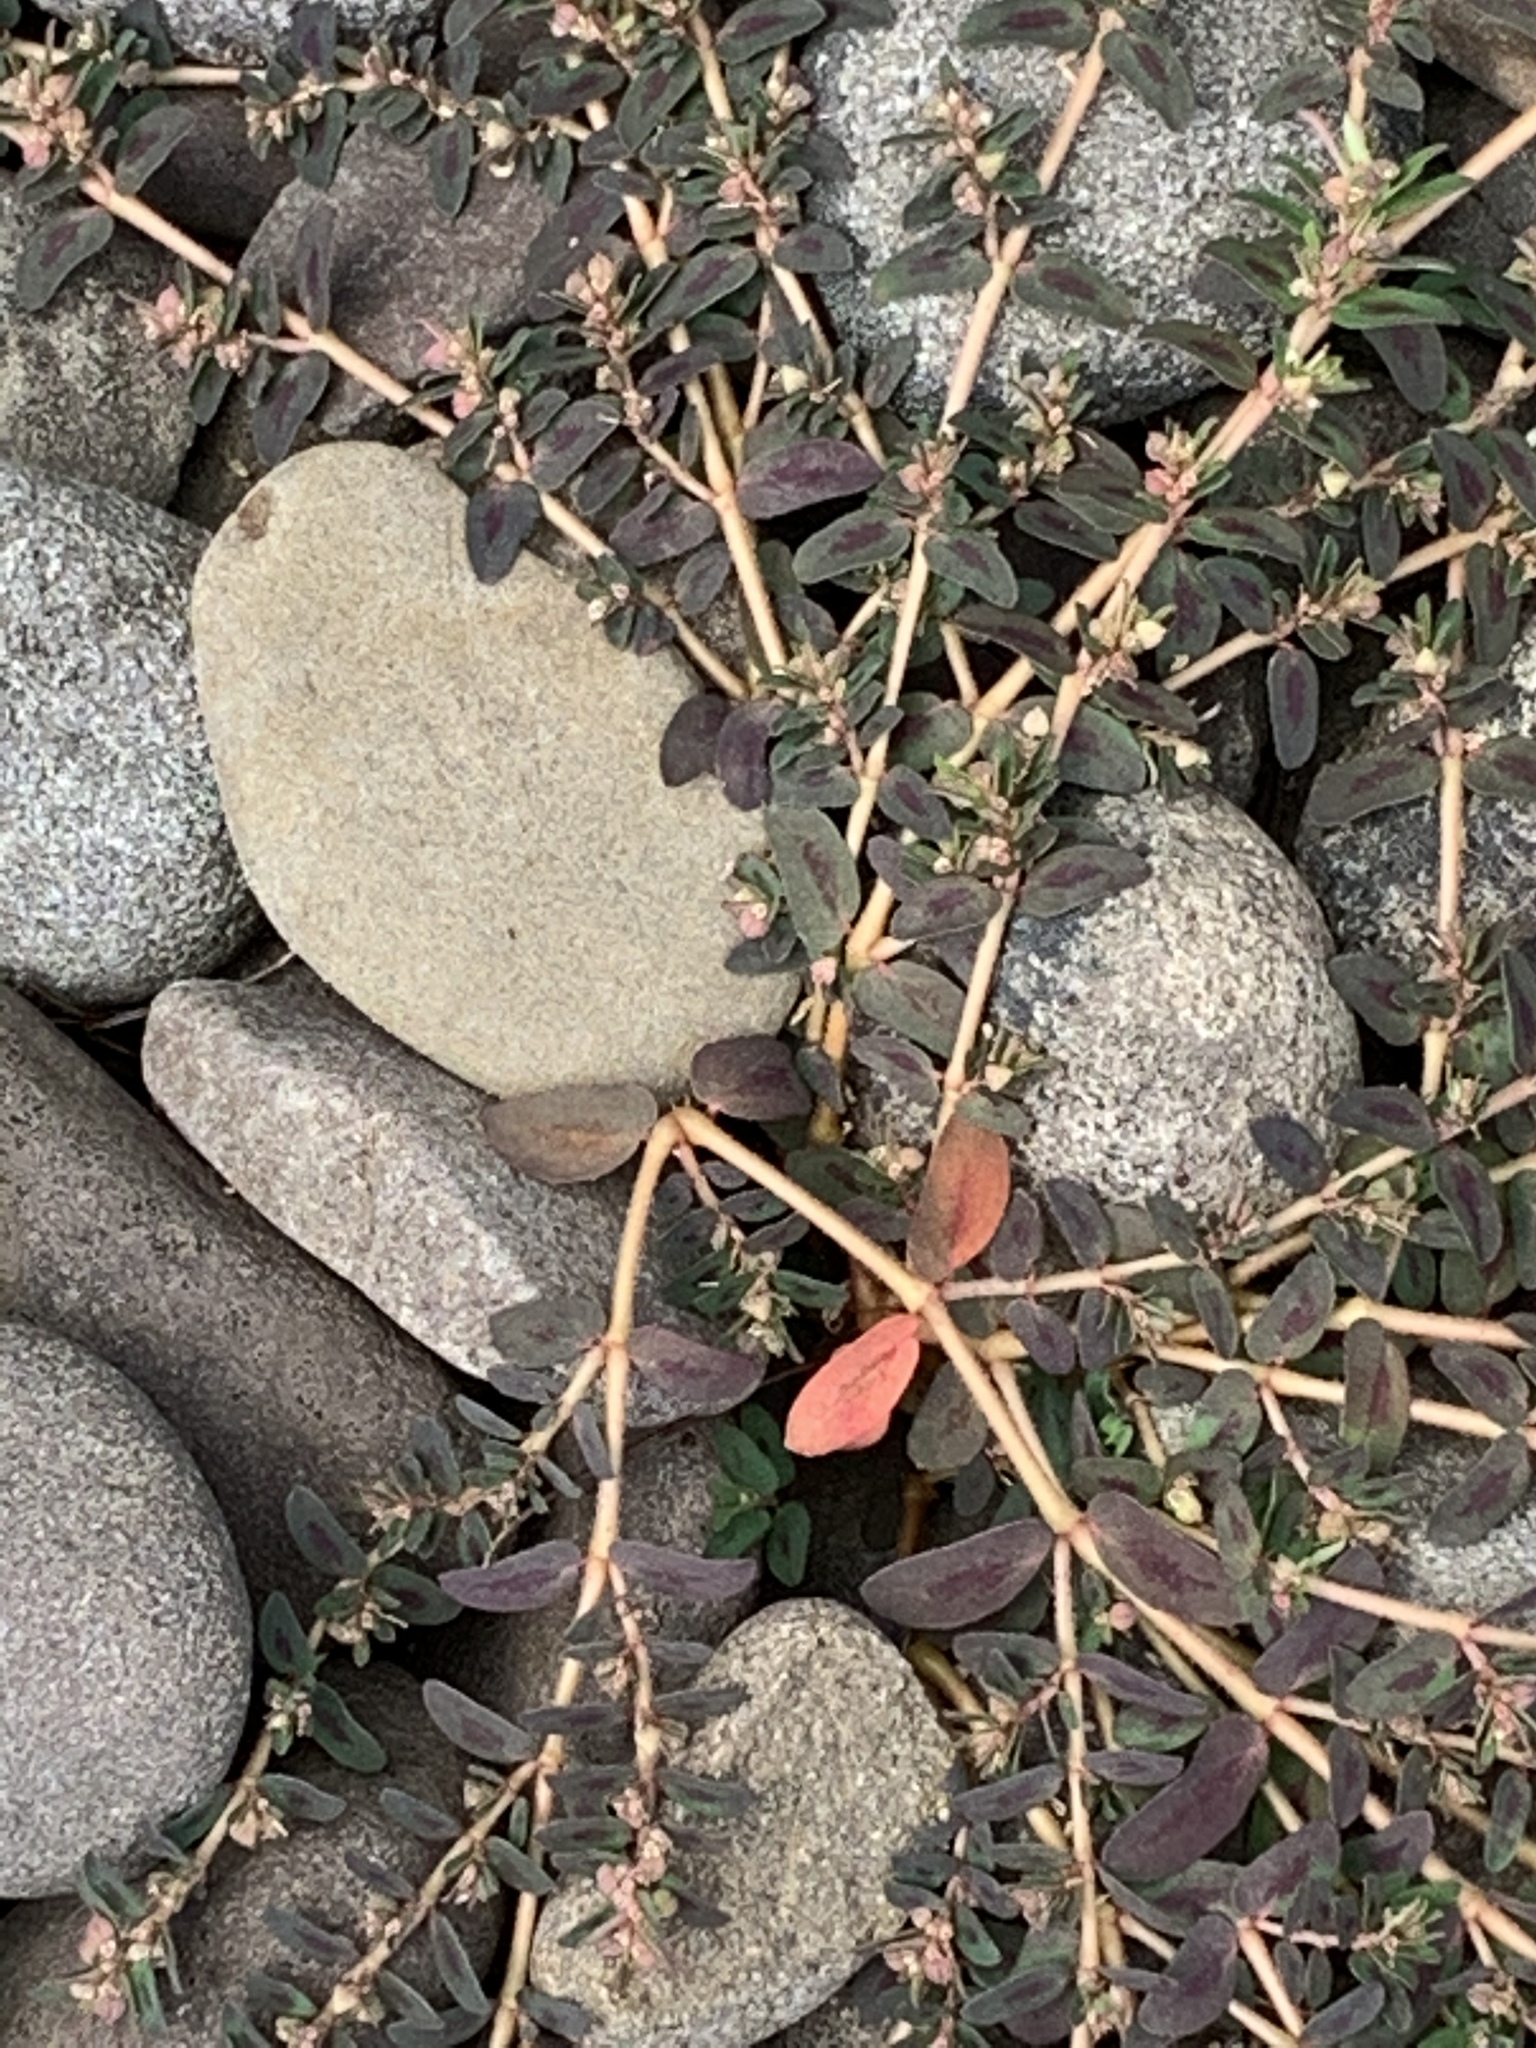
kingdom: Plantae
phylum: Tracheophyta
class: Magnoliopsida
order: Malpighiales
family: Euphorbiaceae
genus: Euphorbia
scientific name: Euphorbia maculata
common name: Spotted spurge
